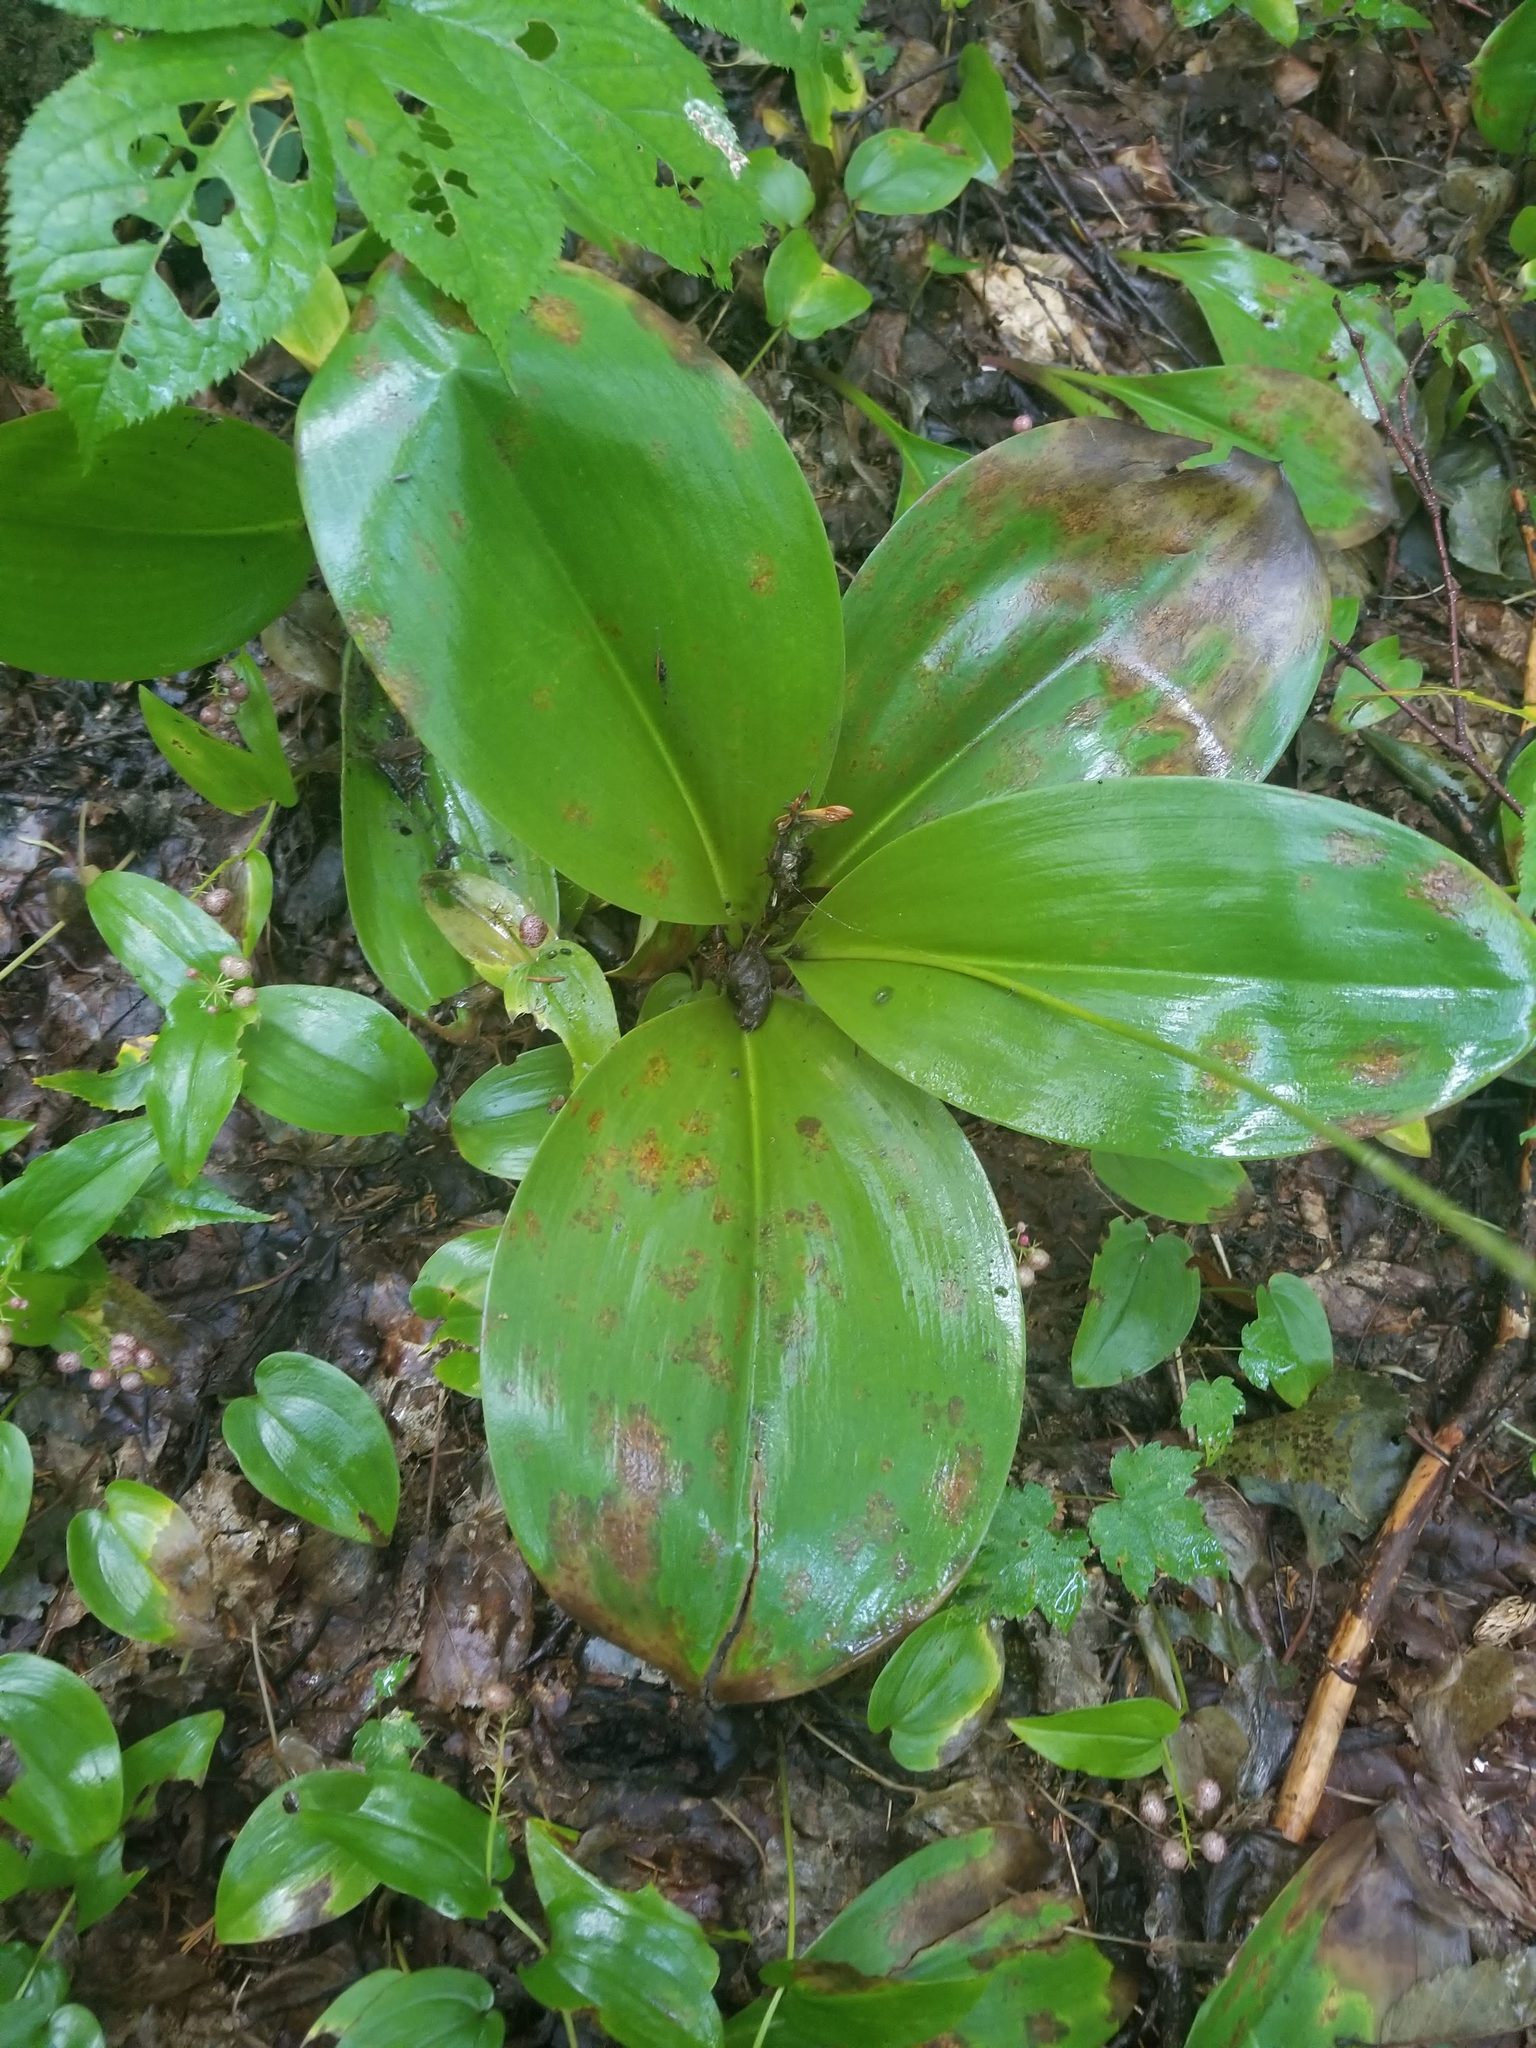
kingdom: Plantae
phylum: Tracheophyta
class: Liliopsida
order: Liliales
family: Liliaceae
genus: Clintonia
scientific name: Clintonia borealis
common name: Yellow clintonia
